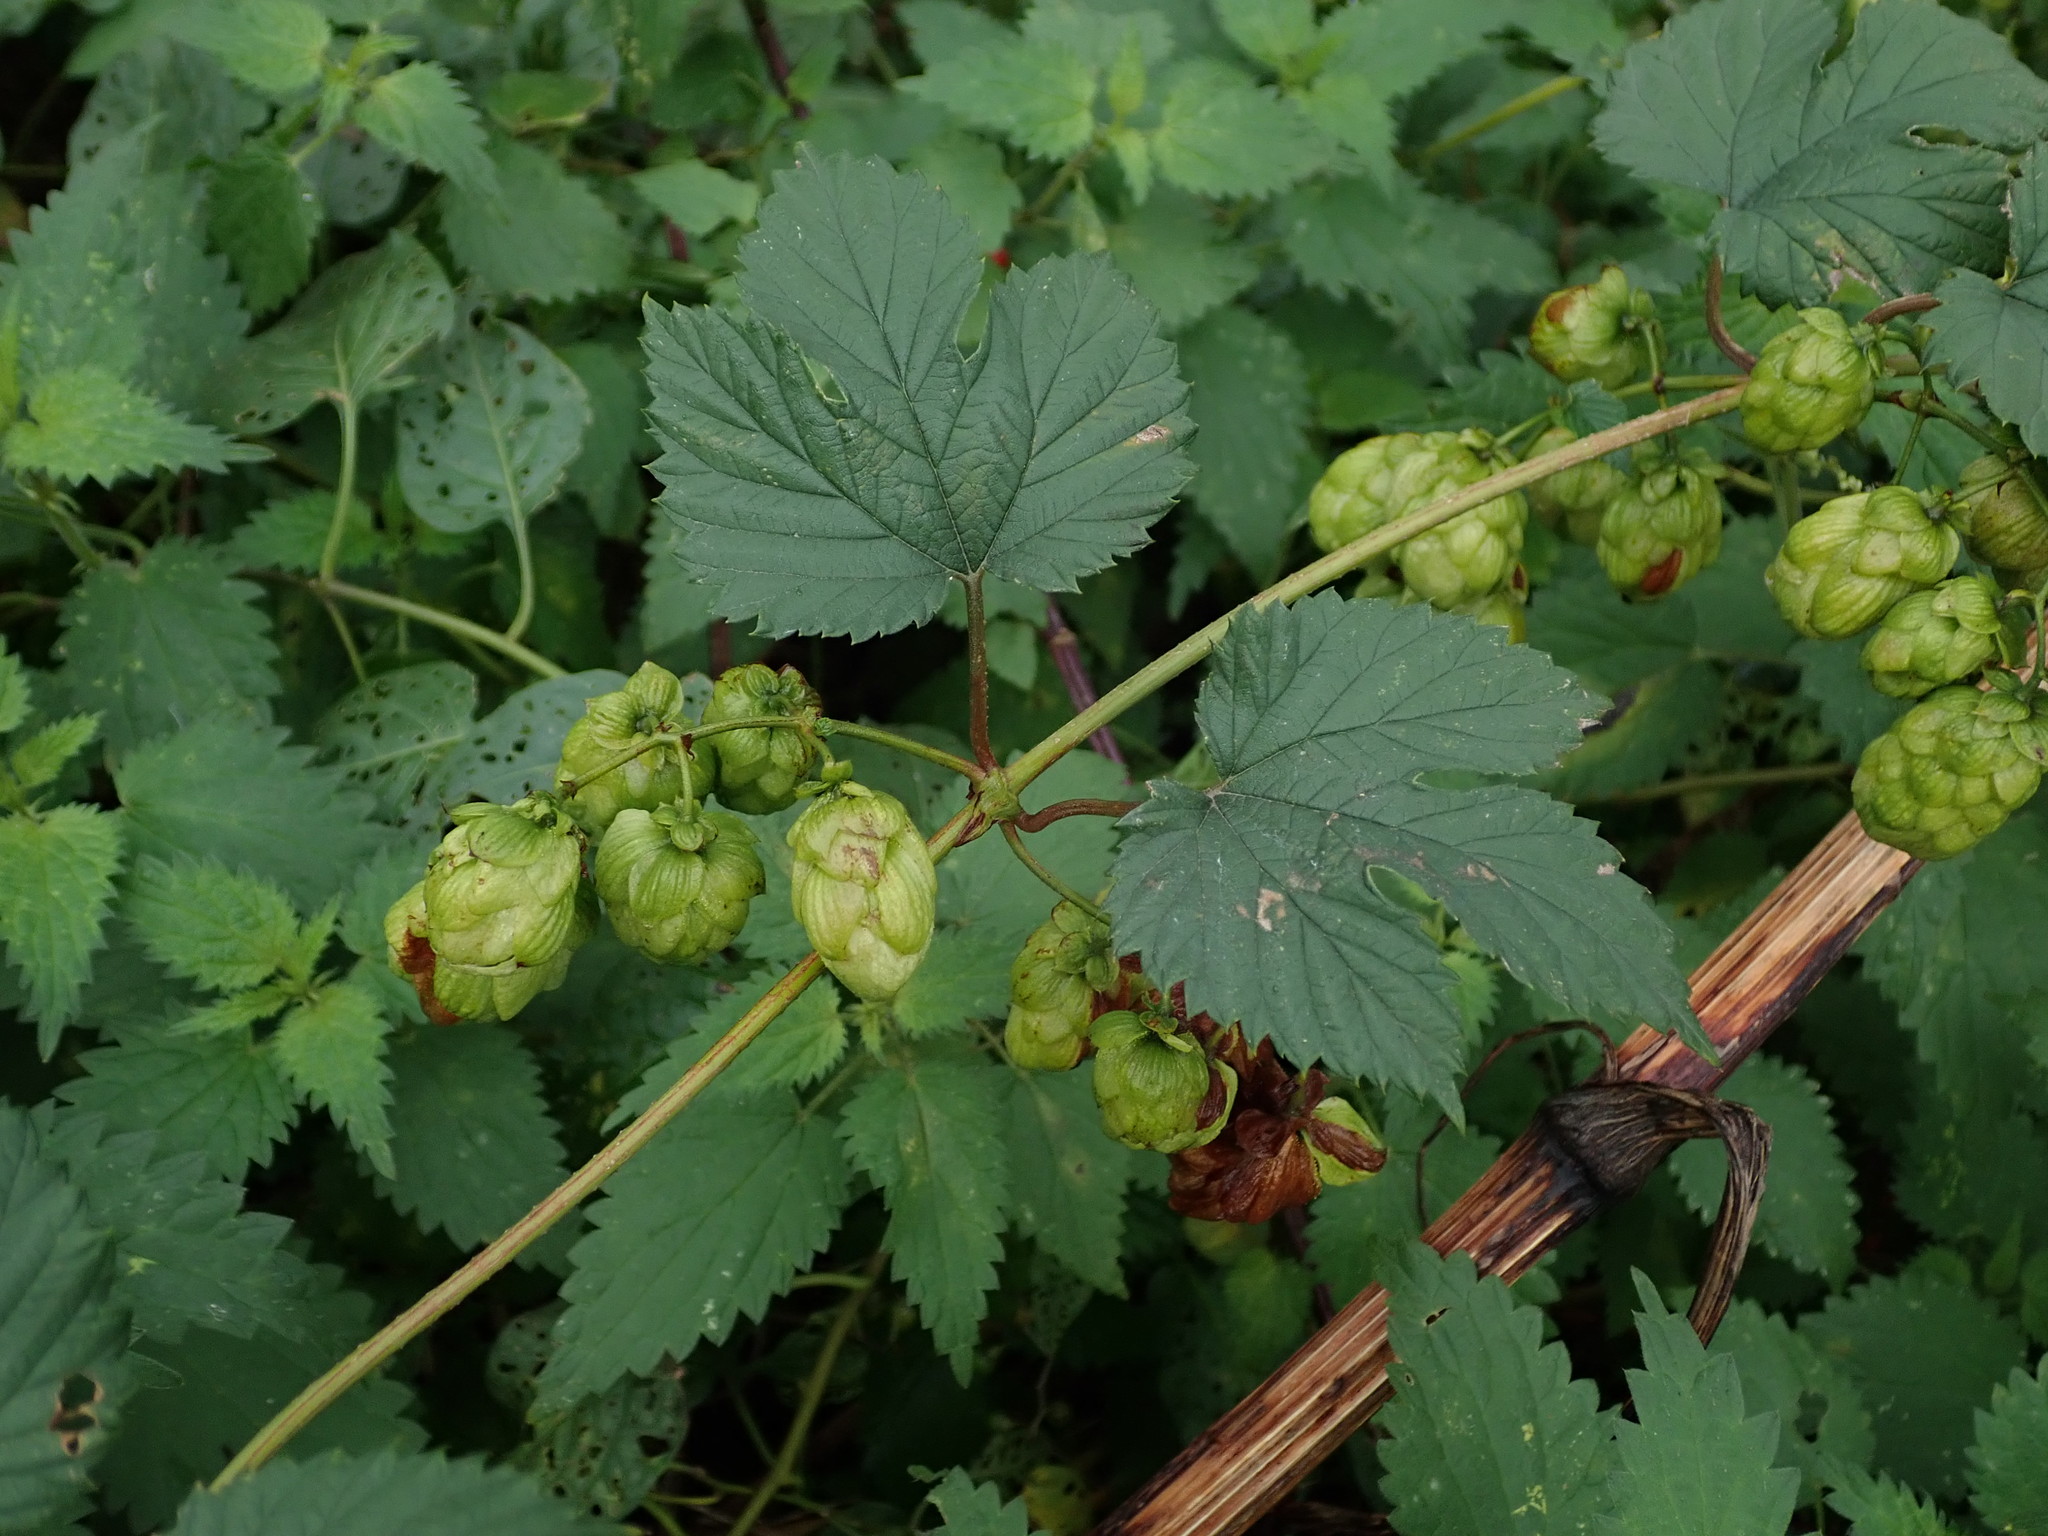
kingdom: Plantae
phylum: Tracheophyta
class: Magnoliopsida
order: Rosales
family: Cannabaceae
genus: Humulus
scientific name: Humulus lupulus
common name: Hop
